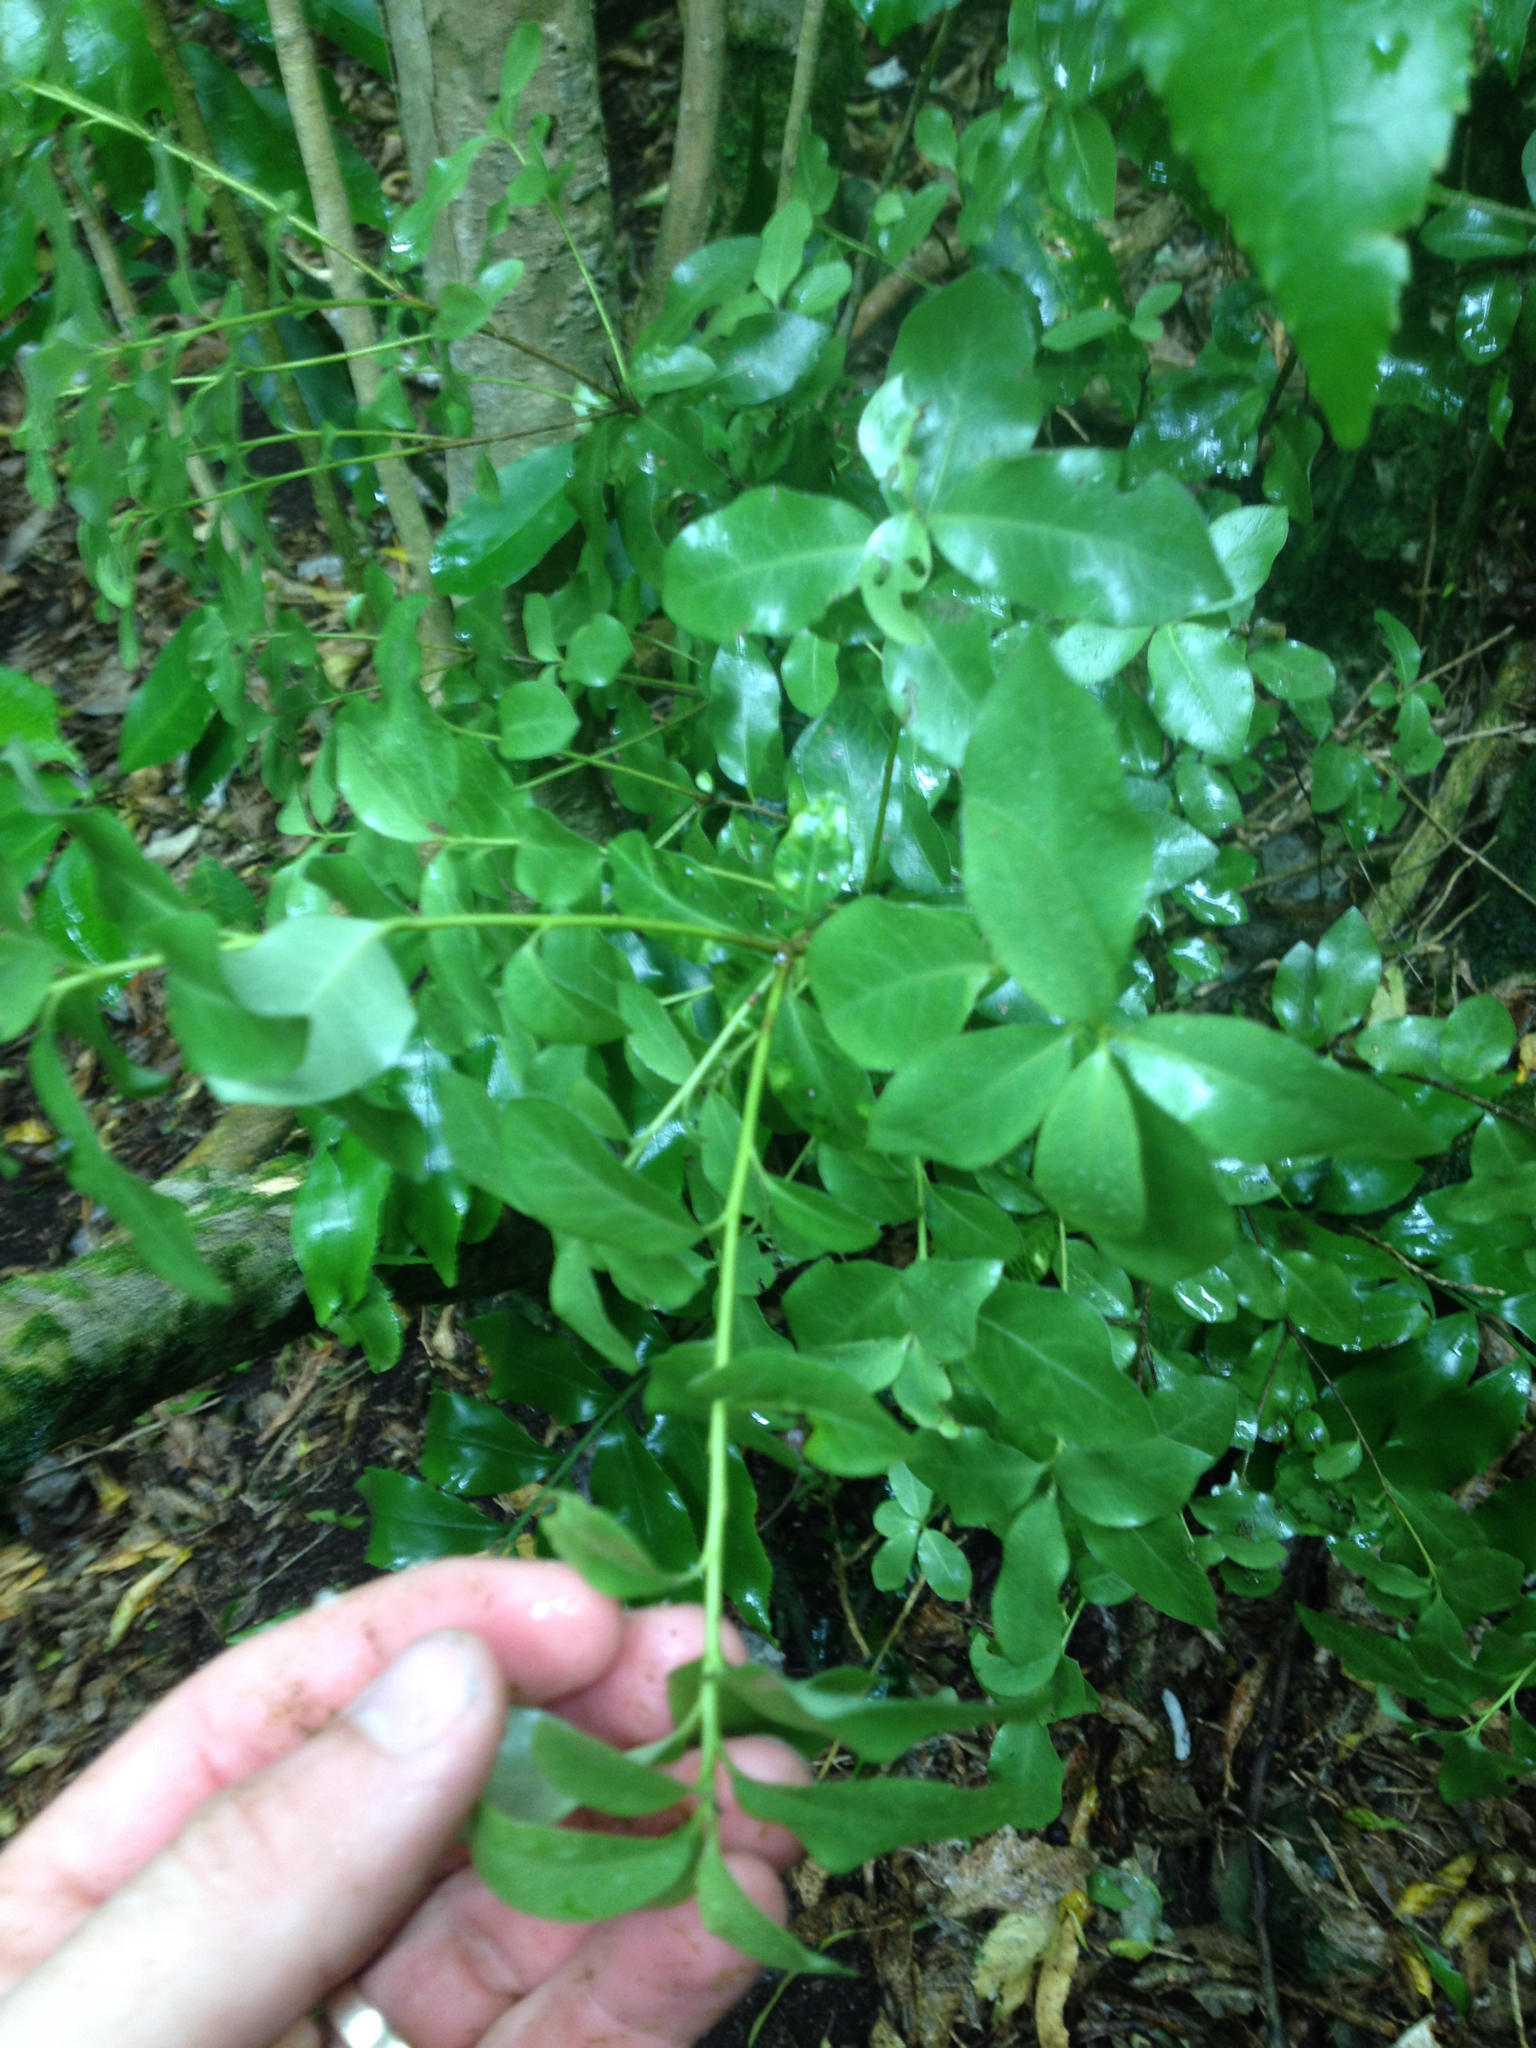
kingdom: Plantae
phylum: Tracheophyta
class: Magnoliopsida
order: Apiales
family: Pittosporaceae
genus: Pittosporum
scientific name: Pittosporum tenuifolium
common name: Kohuhu
